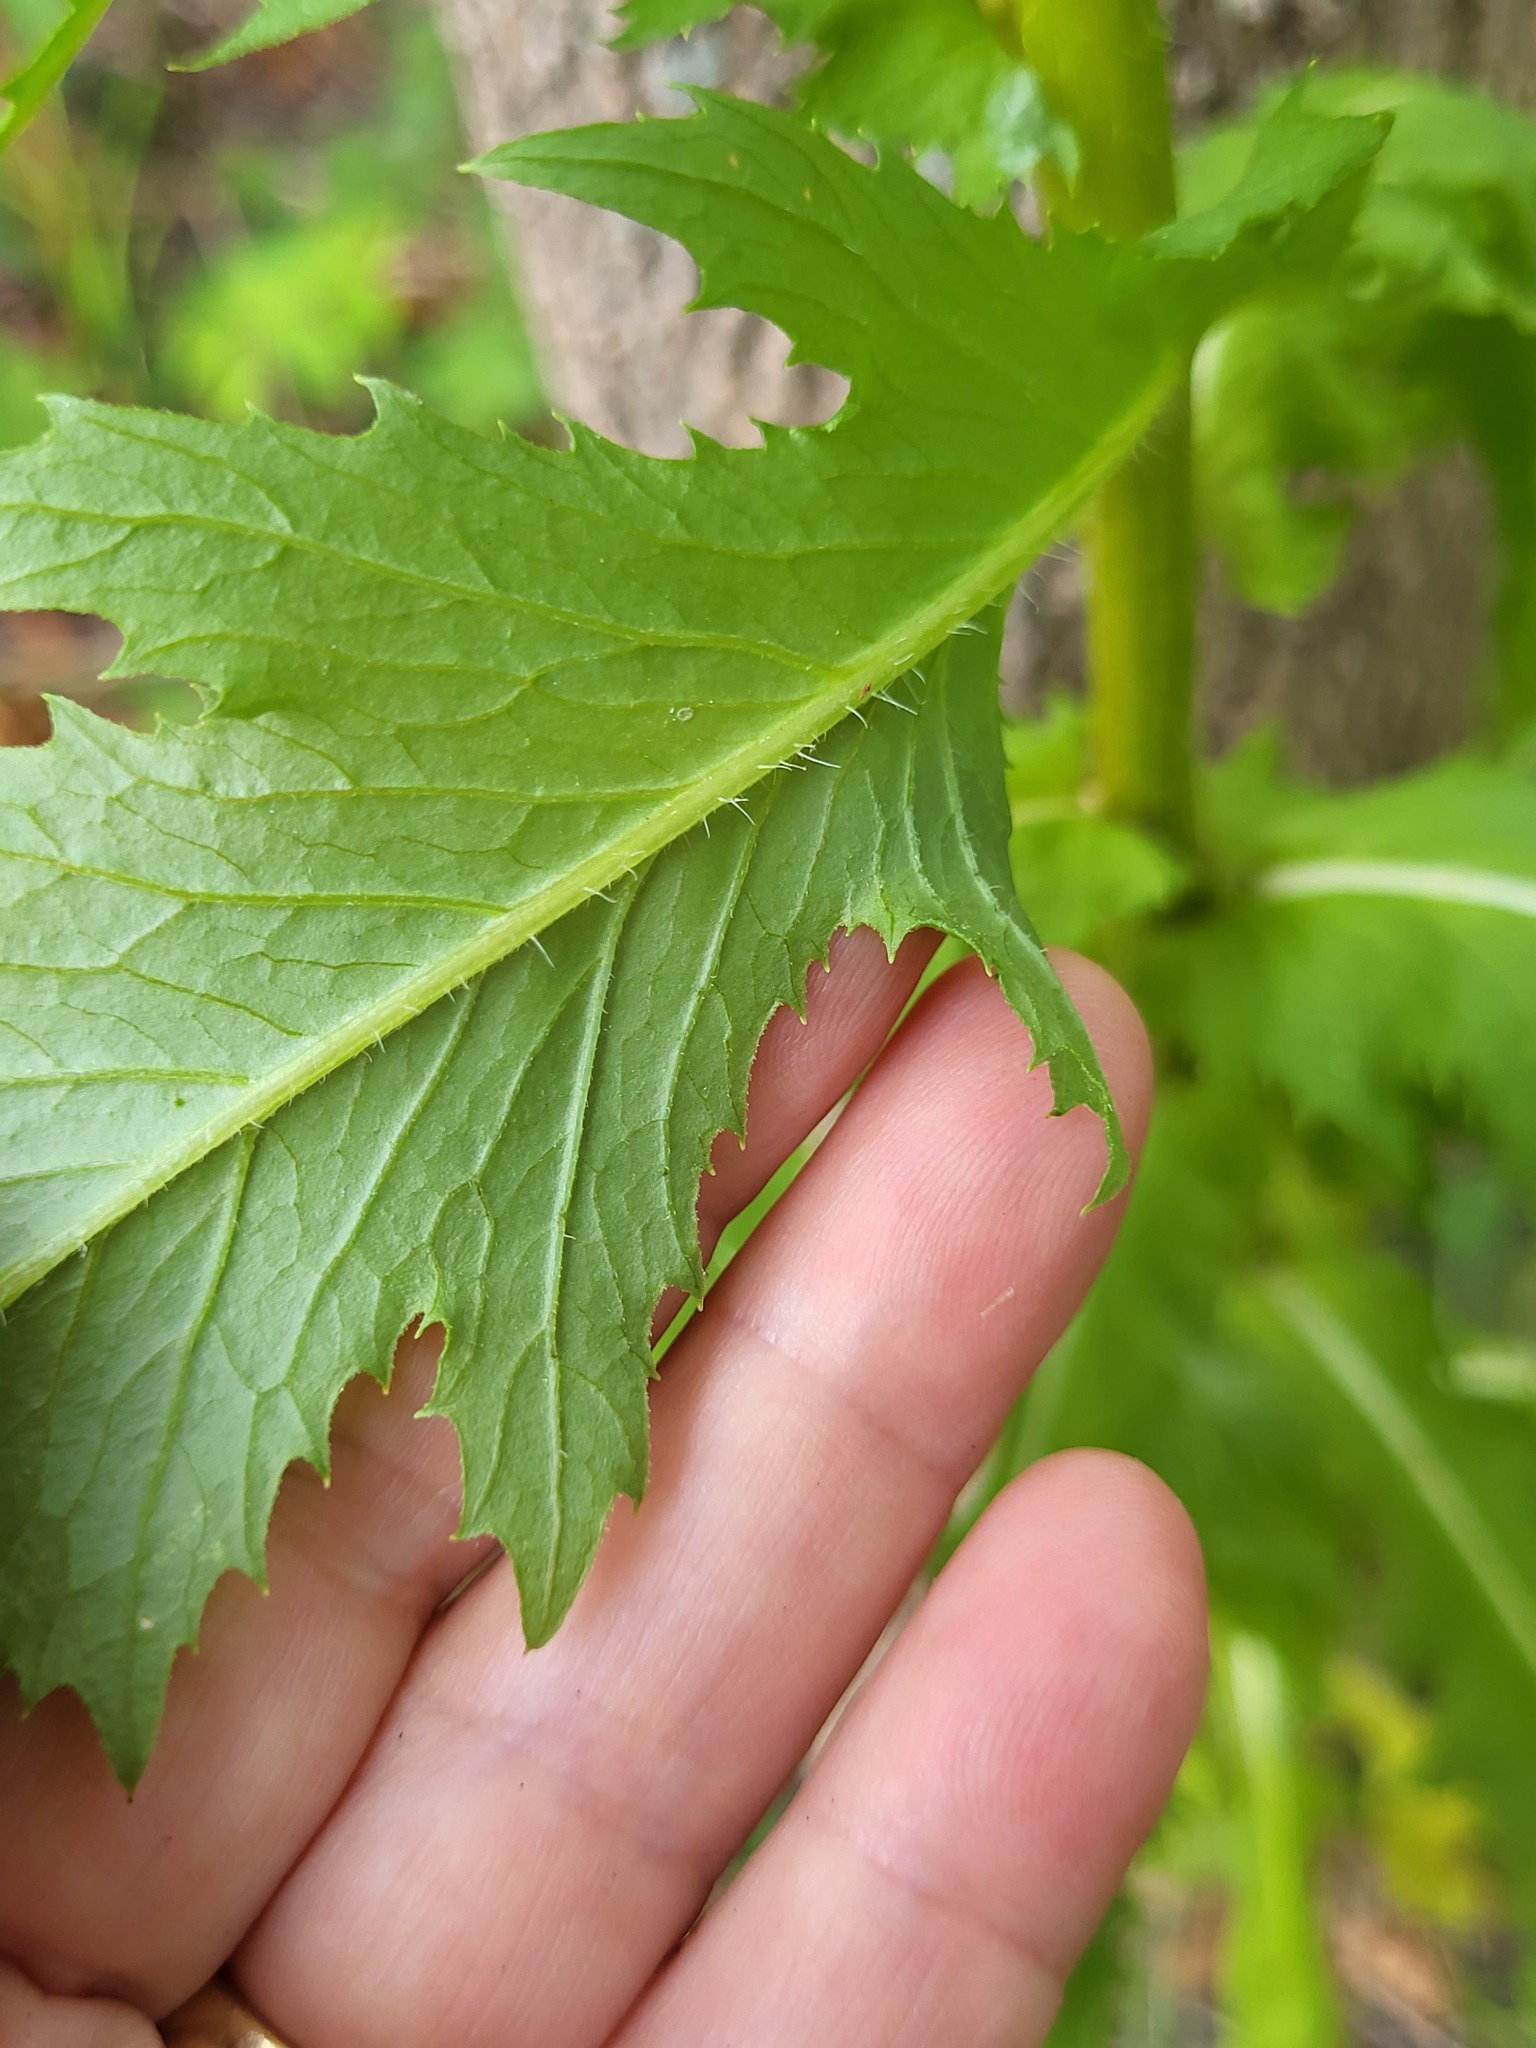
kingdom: Plantae
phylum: Tracheophyta
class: Magnoliopsida
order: Asterales
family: Asteraceae
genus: Erechtites
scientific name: Erechtites hieraciifolius
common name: American burnweed
